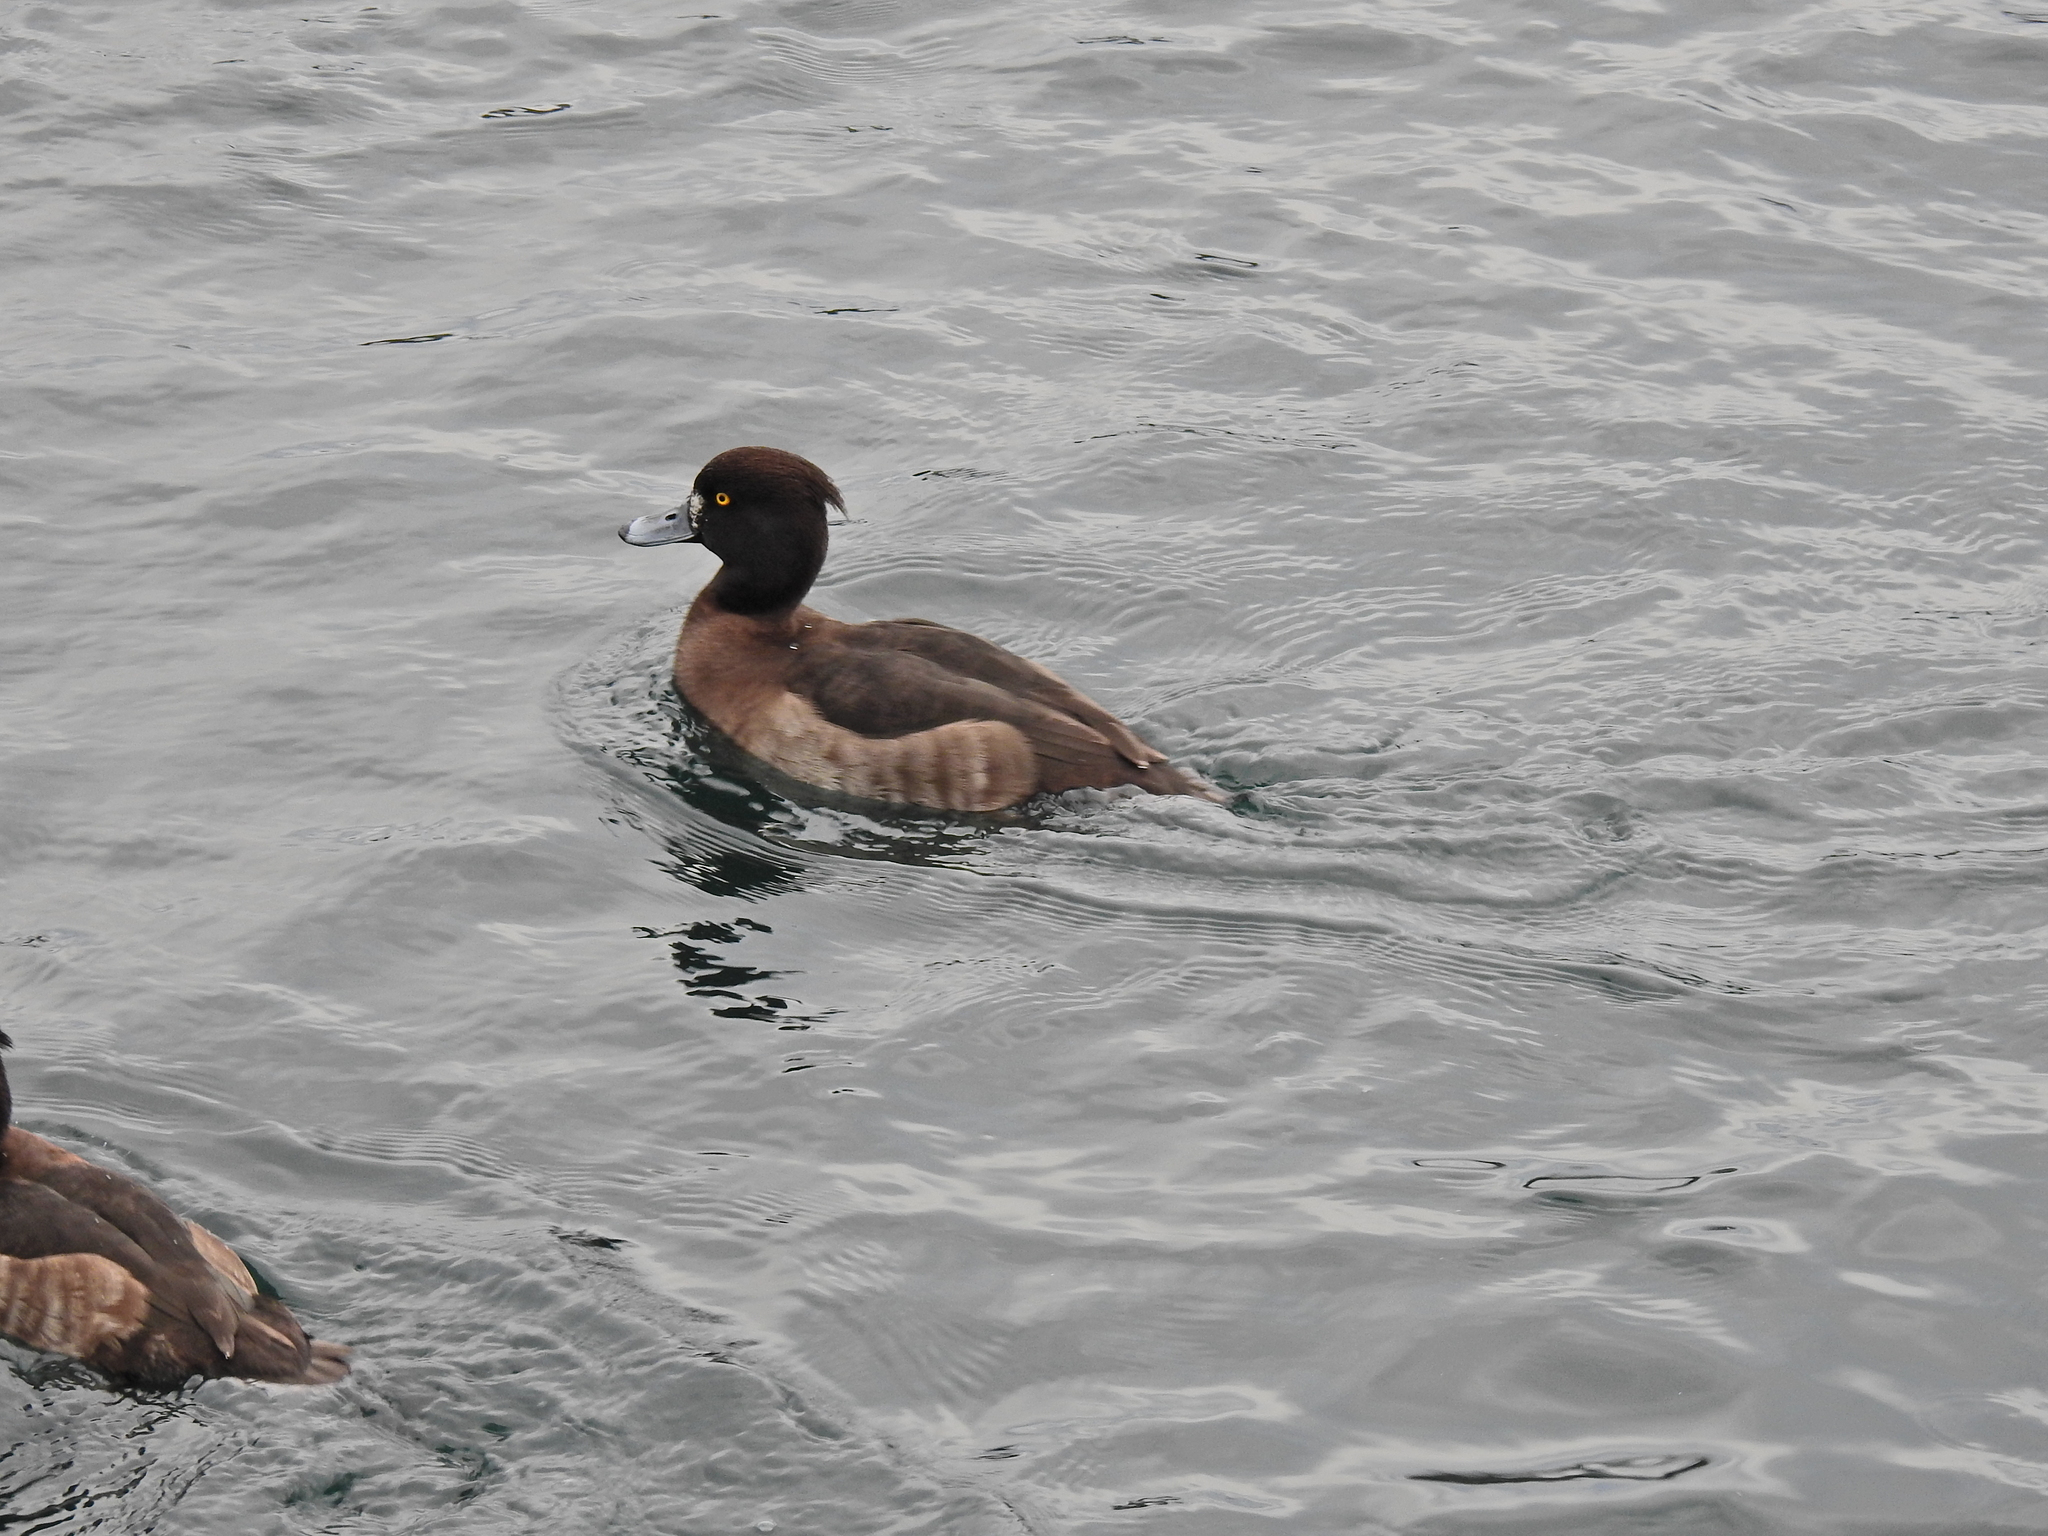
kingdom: Animalia
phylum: Chordata
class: Aves
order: Anseriformes
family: Anatidae
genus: Aythya
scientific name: Aythya fuligula
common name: Tufted duck
